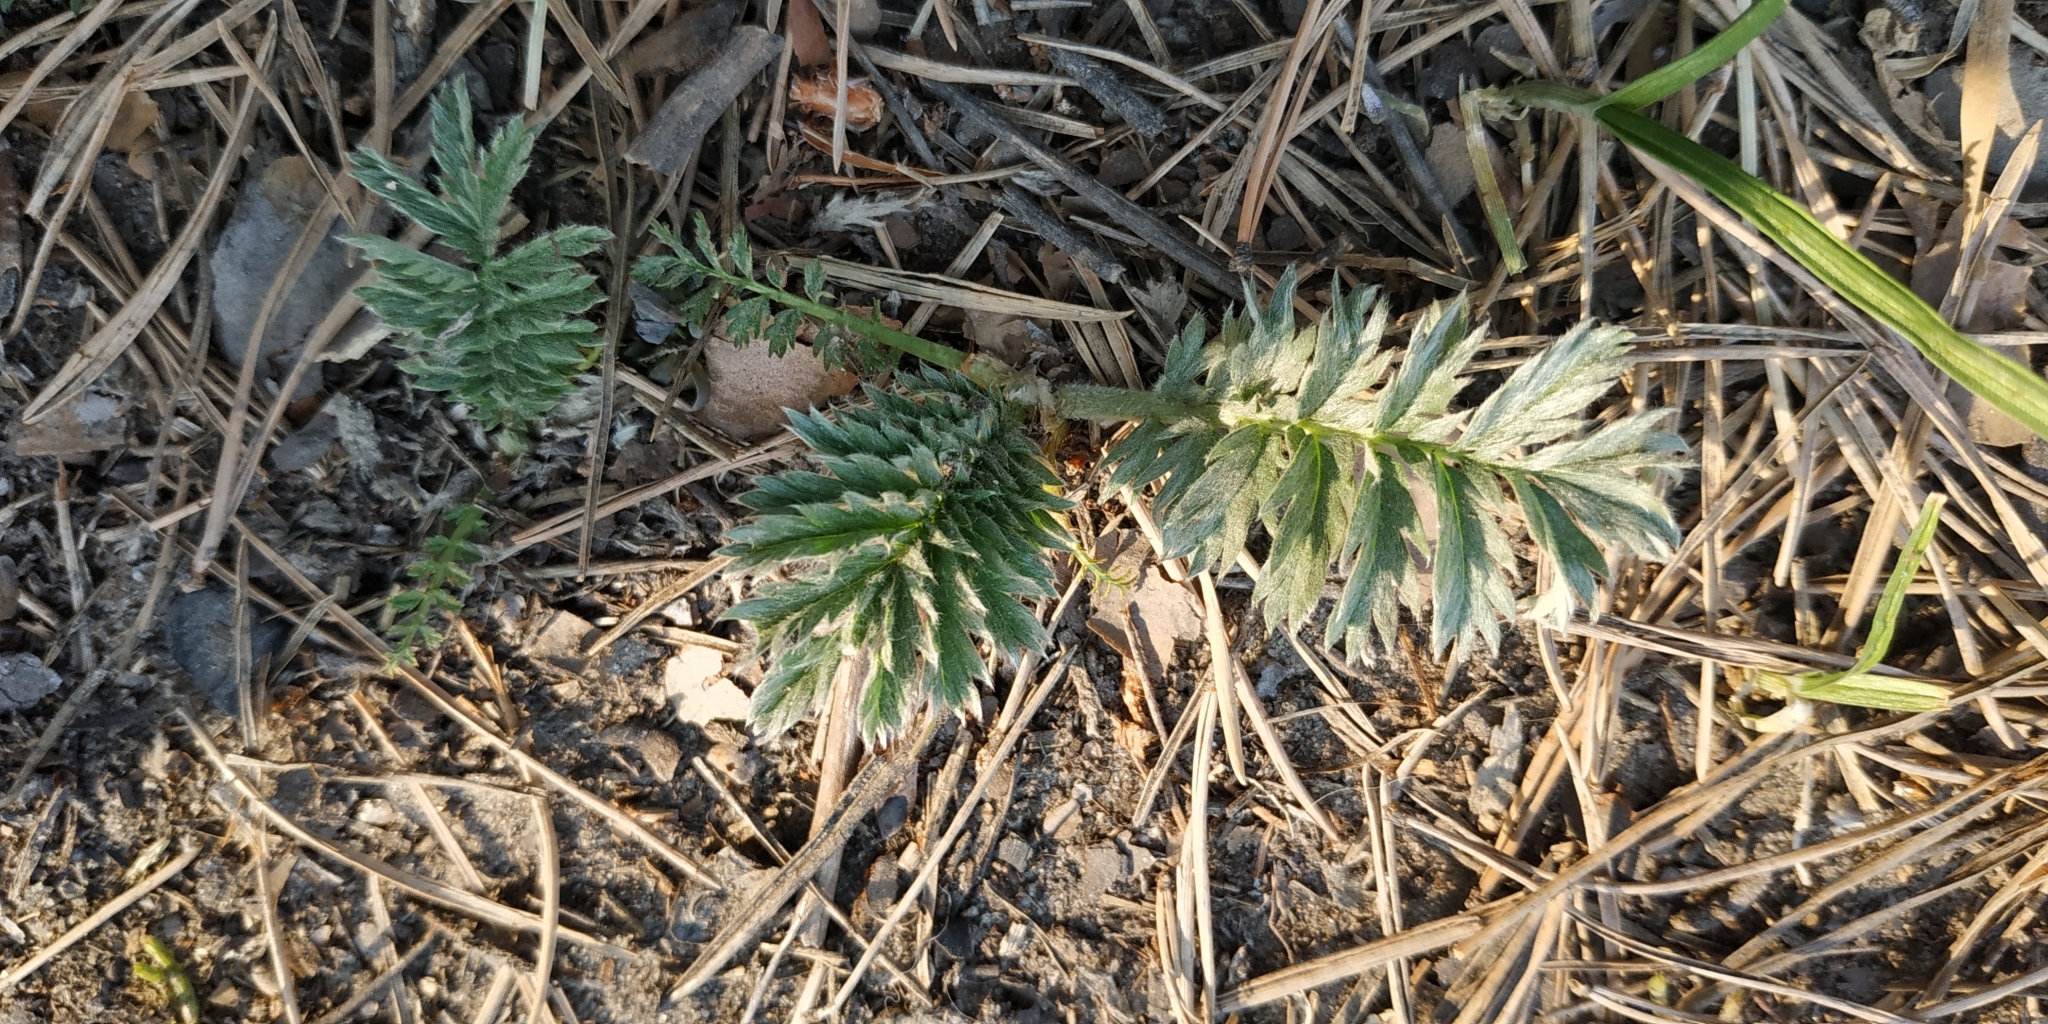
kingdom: Plantae
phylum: Tracheophyta
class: Magnoliopsida
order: Rosales
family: Rosaceae
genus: Argentina
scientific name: Argentina anserina
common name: Common silverweed
